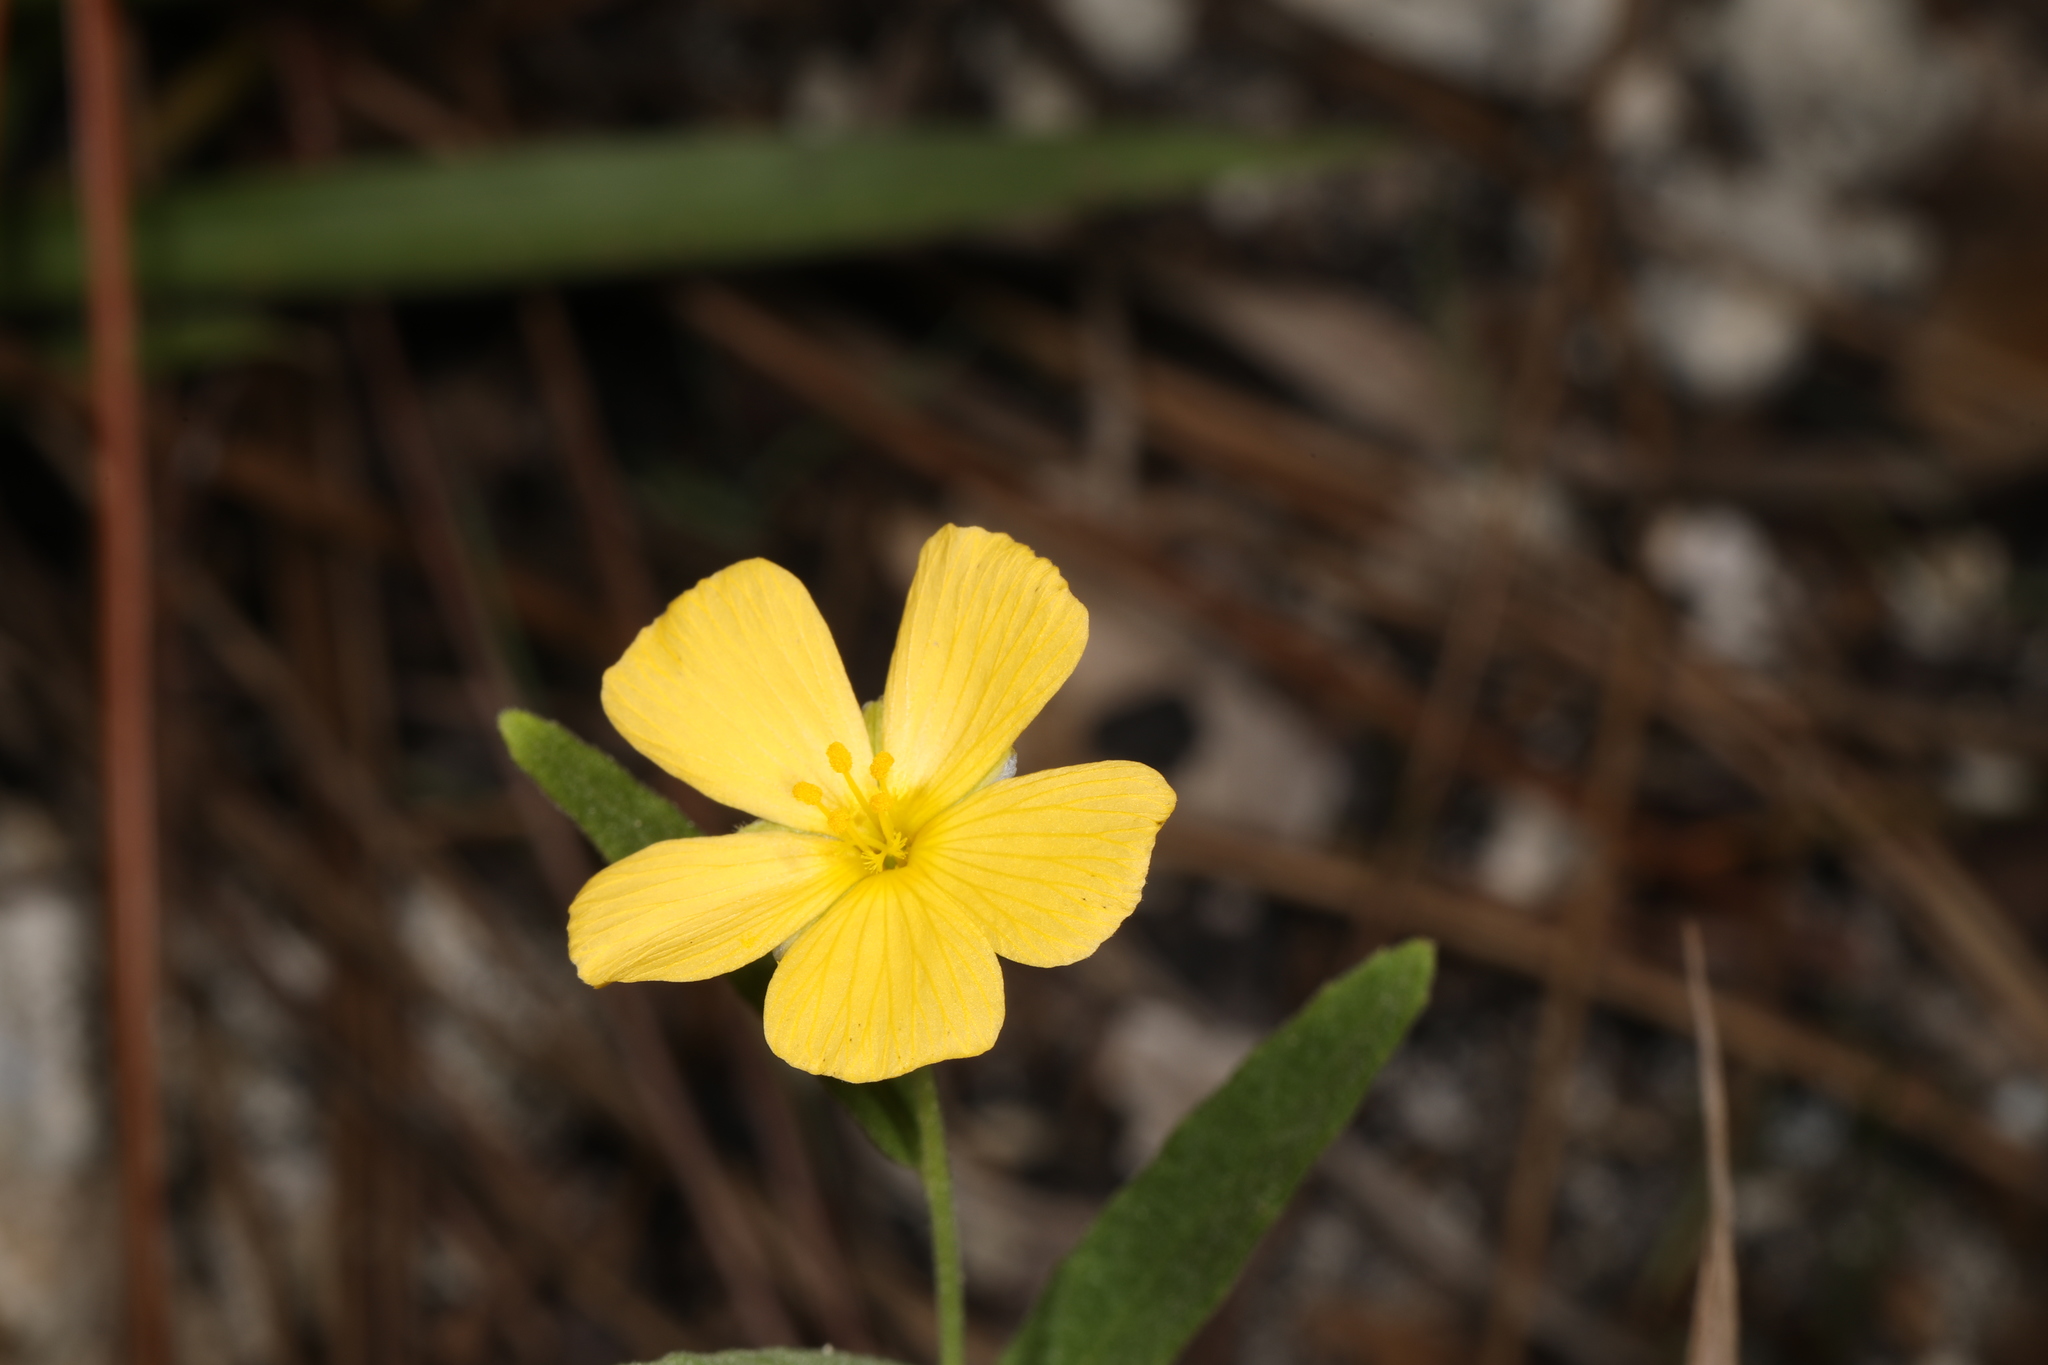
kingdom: Plantae
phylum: Tracheophyta
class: Magnoliopsida
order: Malpighiales
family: Turneraceae
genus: Piriqueta
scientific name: Piriqueta cistoides
